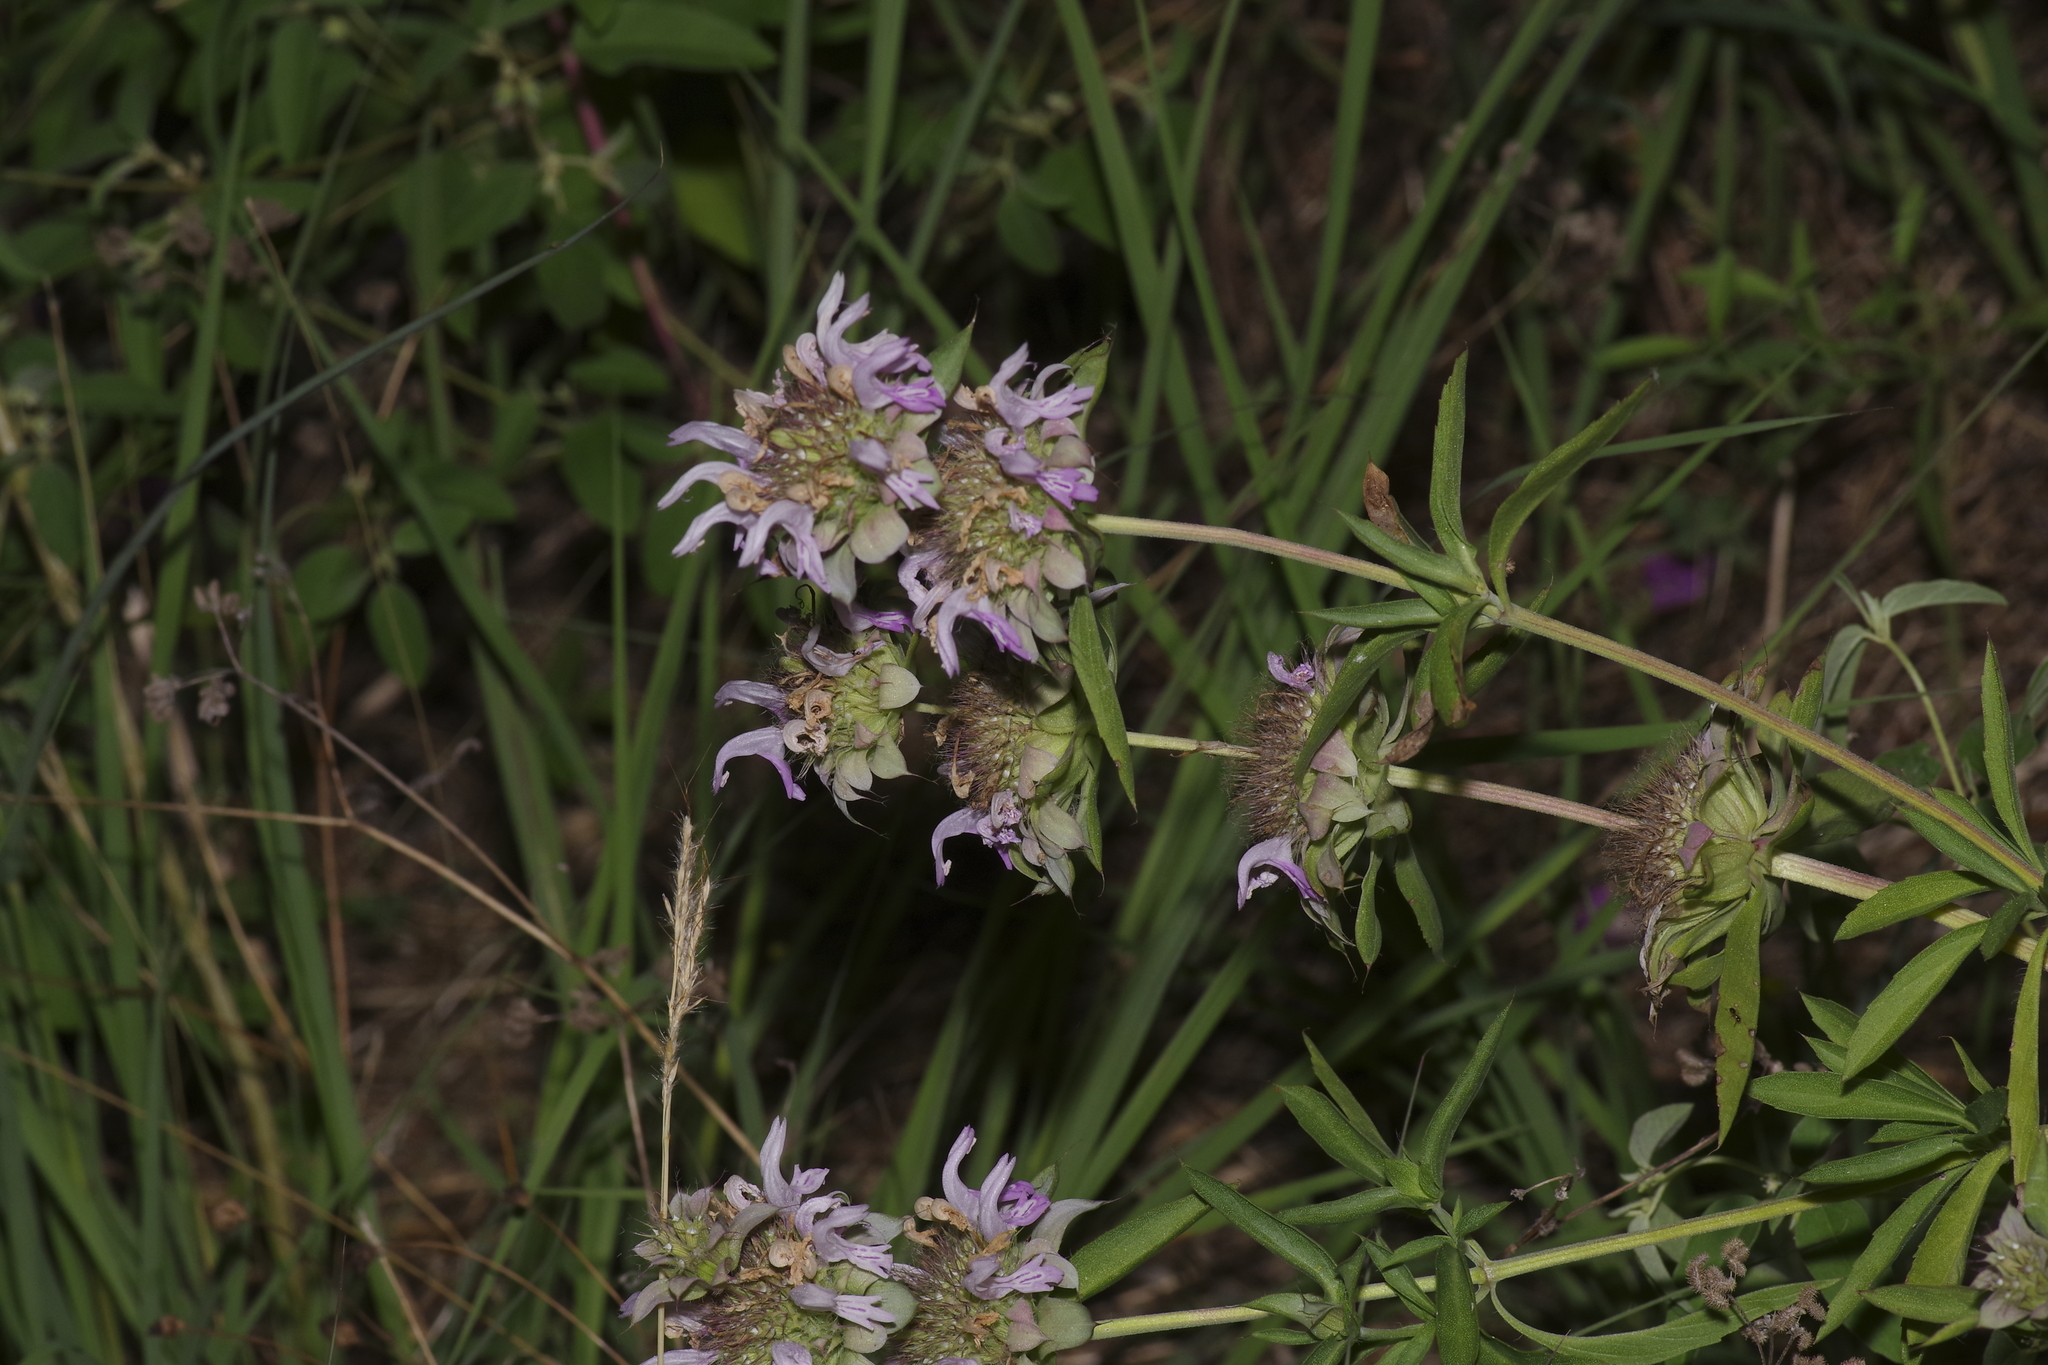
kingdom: Plantae
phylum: Tracheophyta
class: Magnoliopsida
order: Lamiales
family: Lamiaceae
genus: Monarda
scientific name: Monarda citriodora
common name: Lemon beebalm
